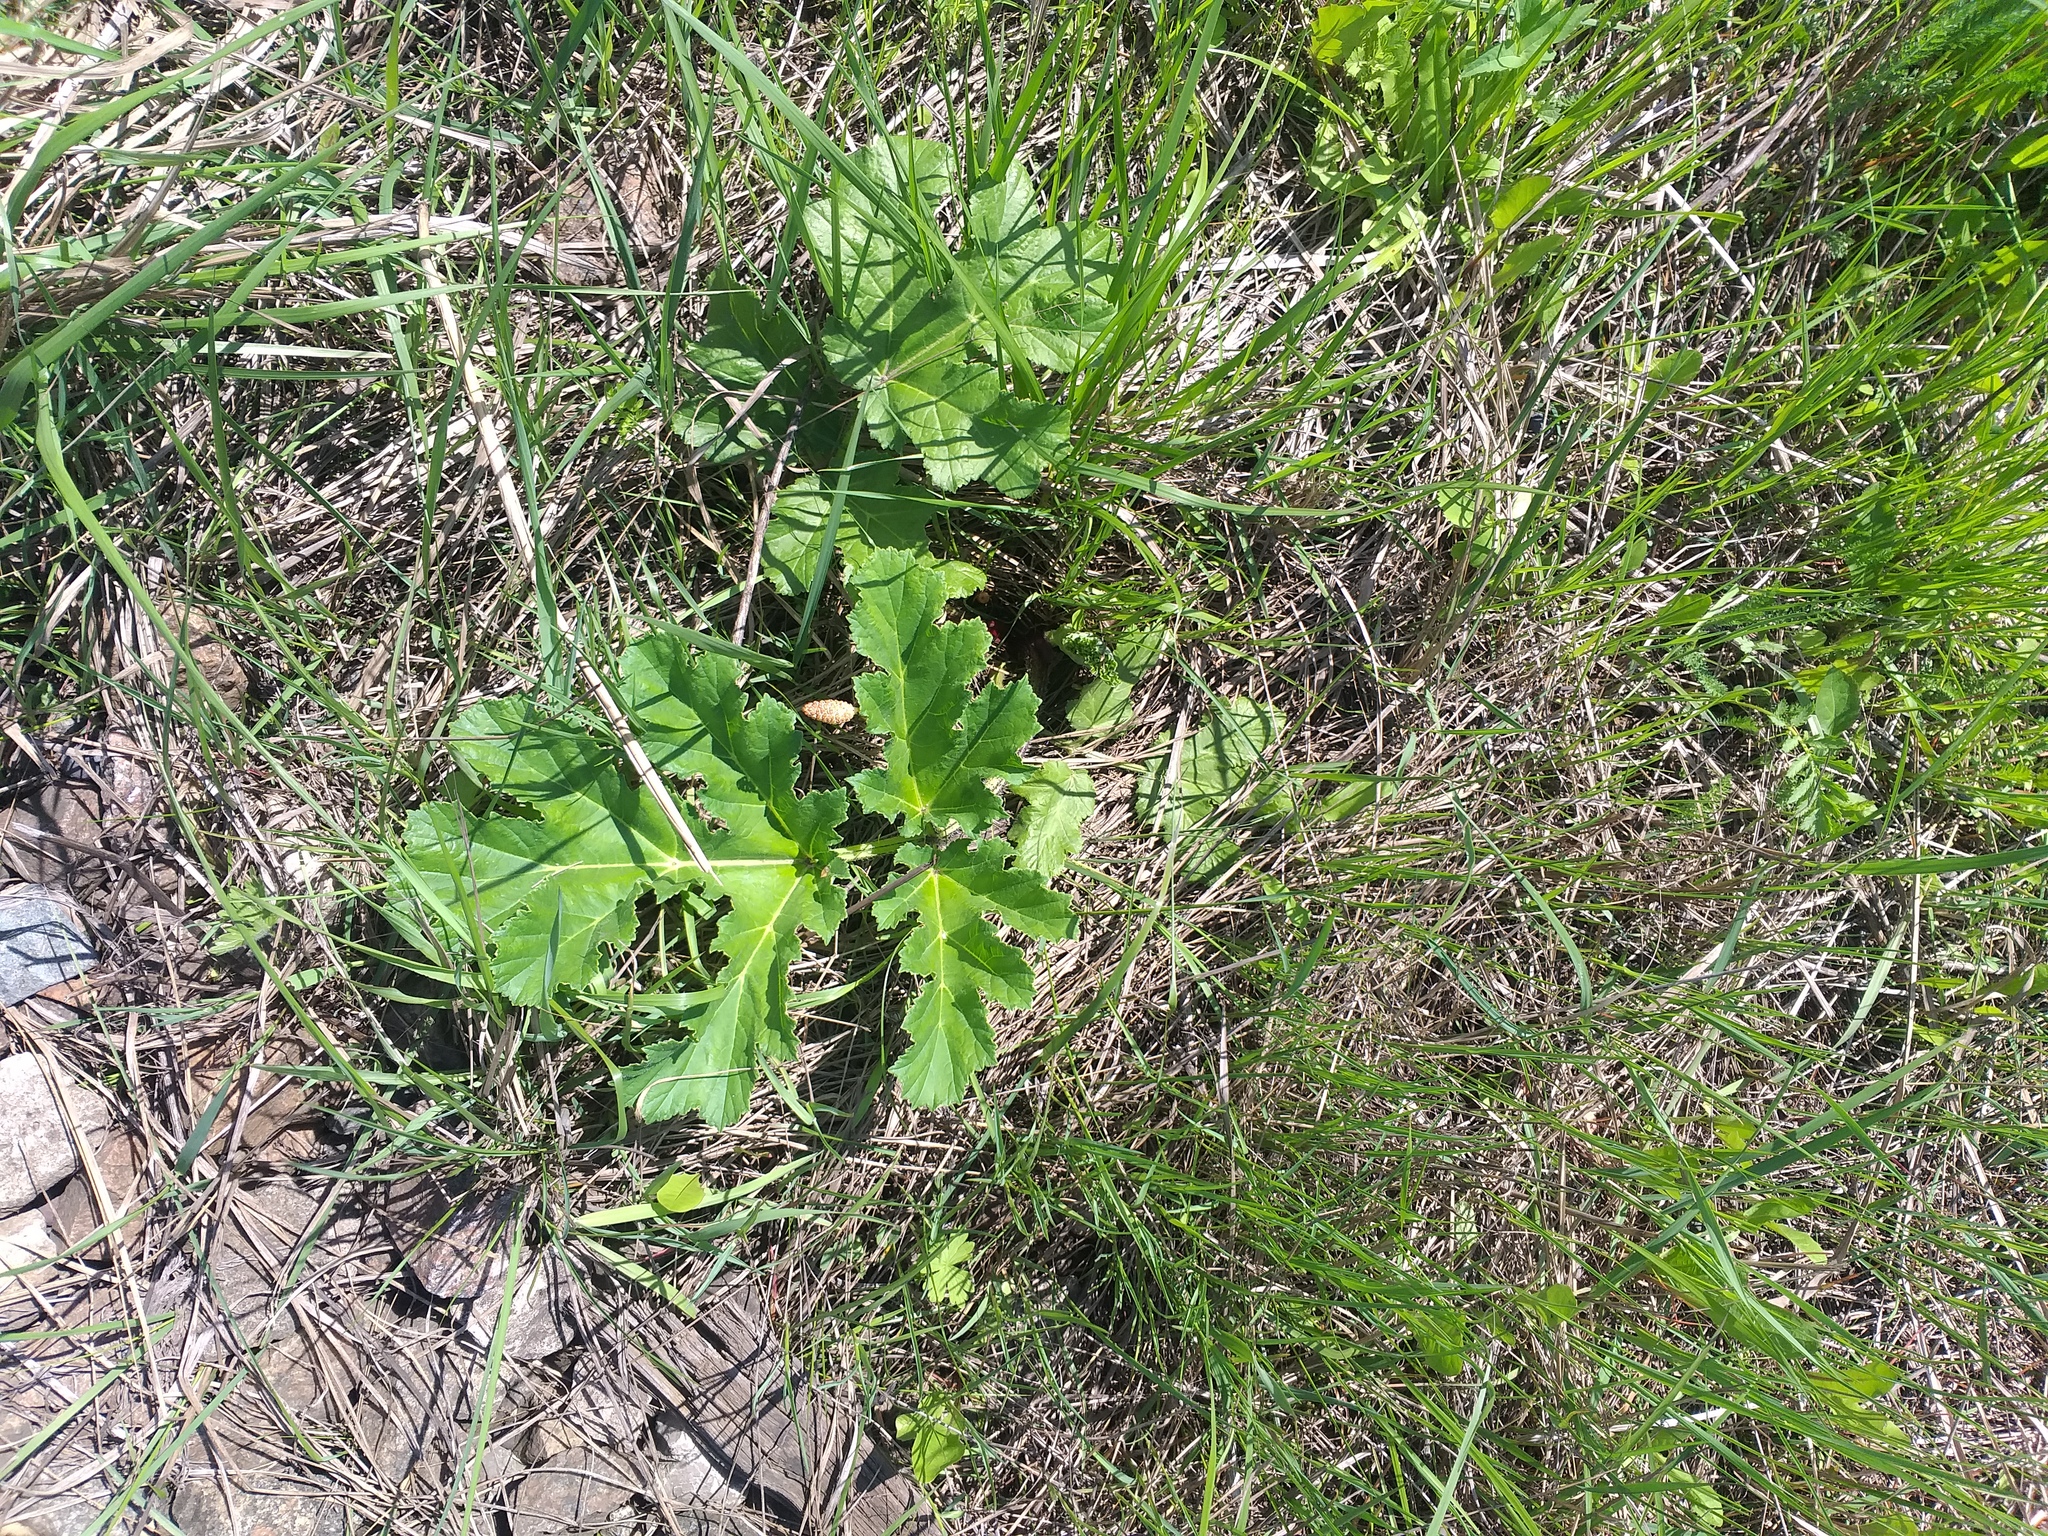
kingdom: Plantae
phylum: Tracheophyta
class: Magnoliopsida
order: Apiales
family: Apiaceae
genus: Heracleum
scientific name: Heracleum sosnowskyi
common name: Sosnowsky's hogweed
